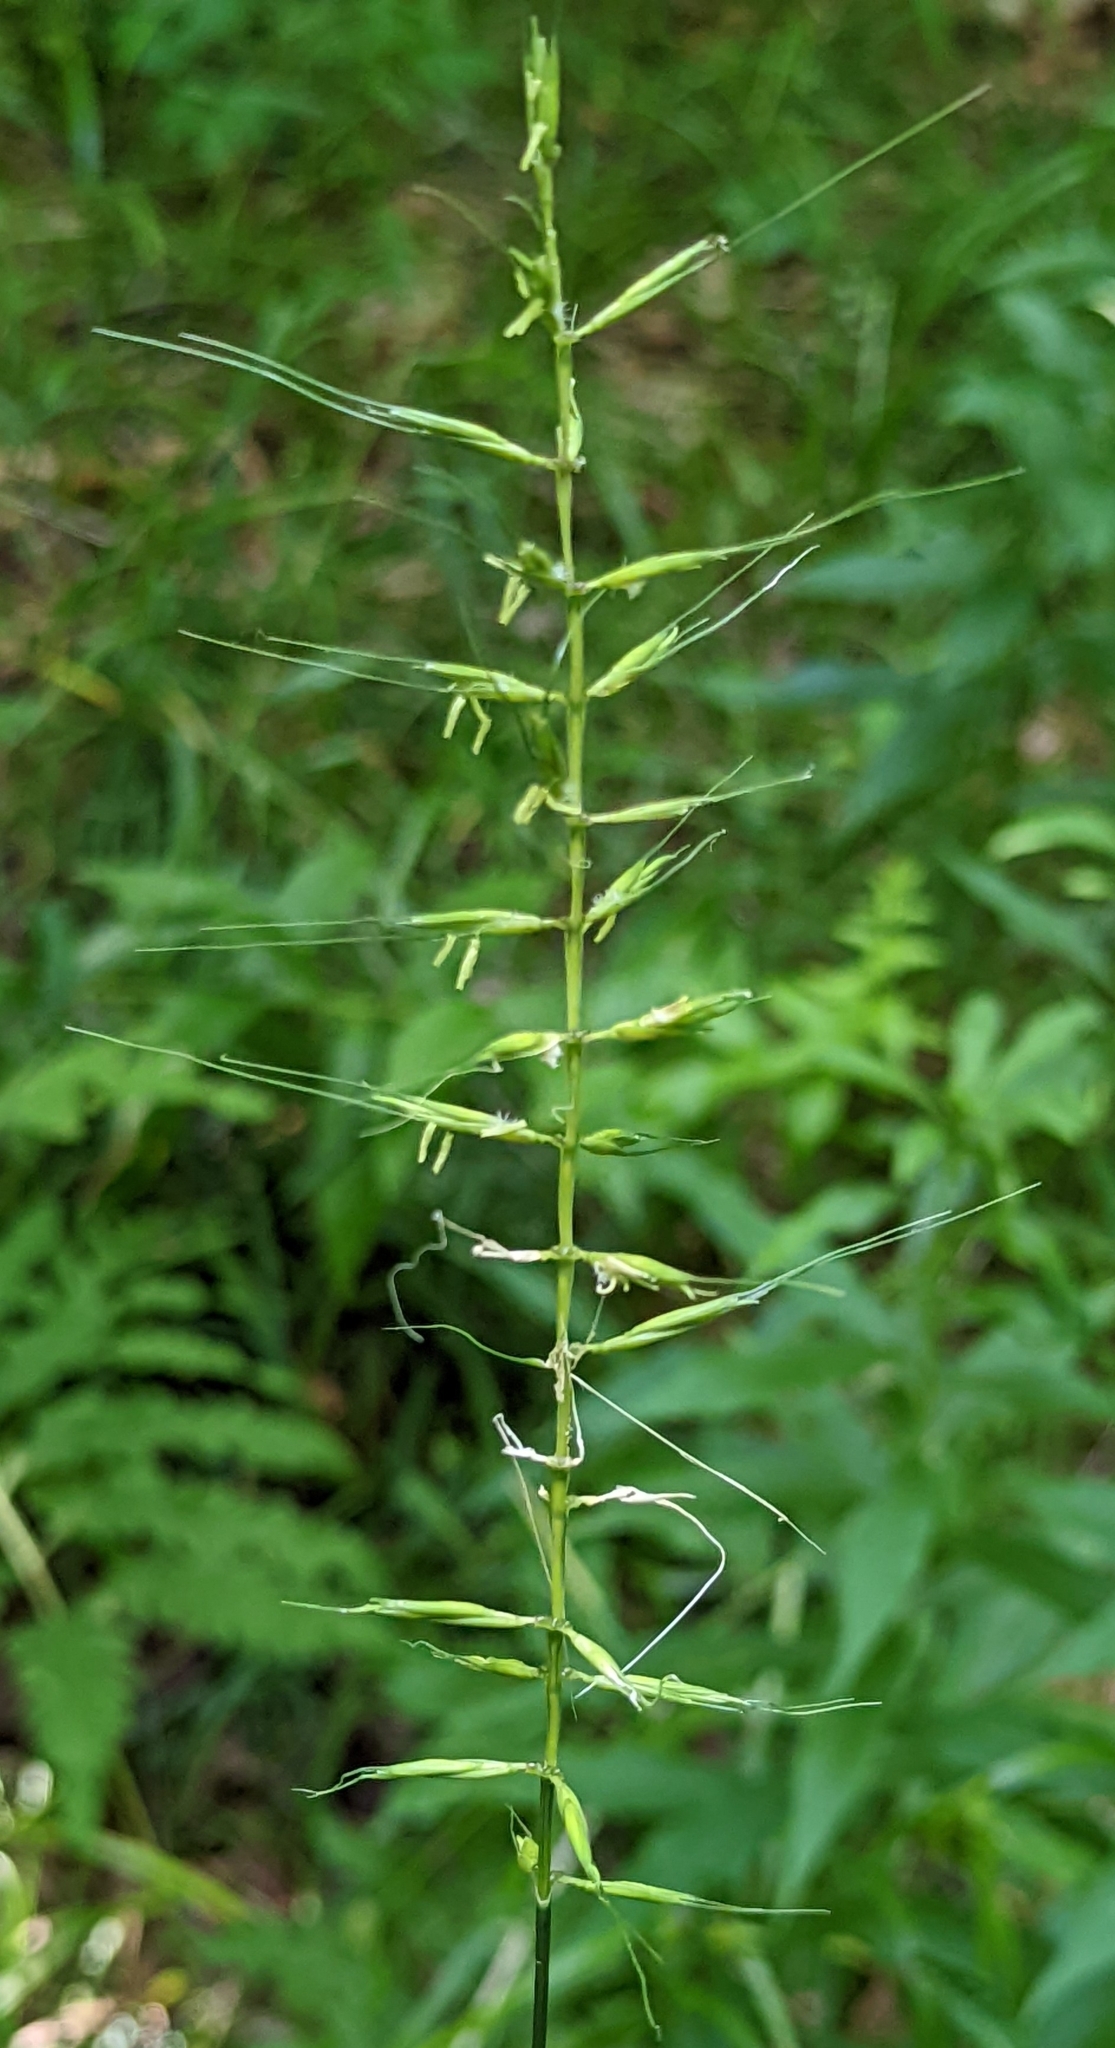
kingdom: Plantae
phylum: Tracheophyta
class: Liliopsida
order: Poales
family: Poaceae
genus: Elymus
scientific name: Elymus hystrix
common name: Bottlebrush grass
